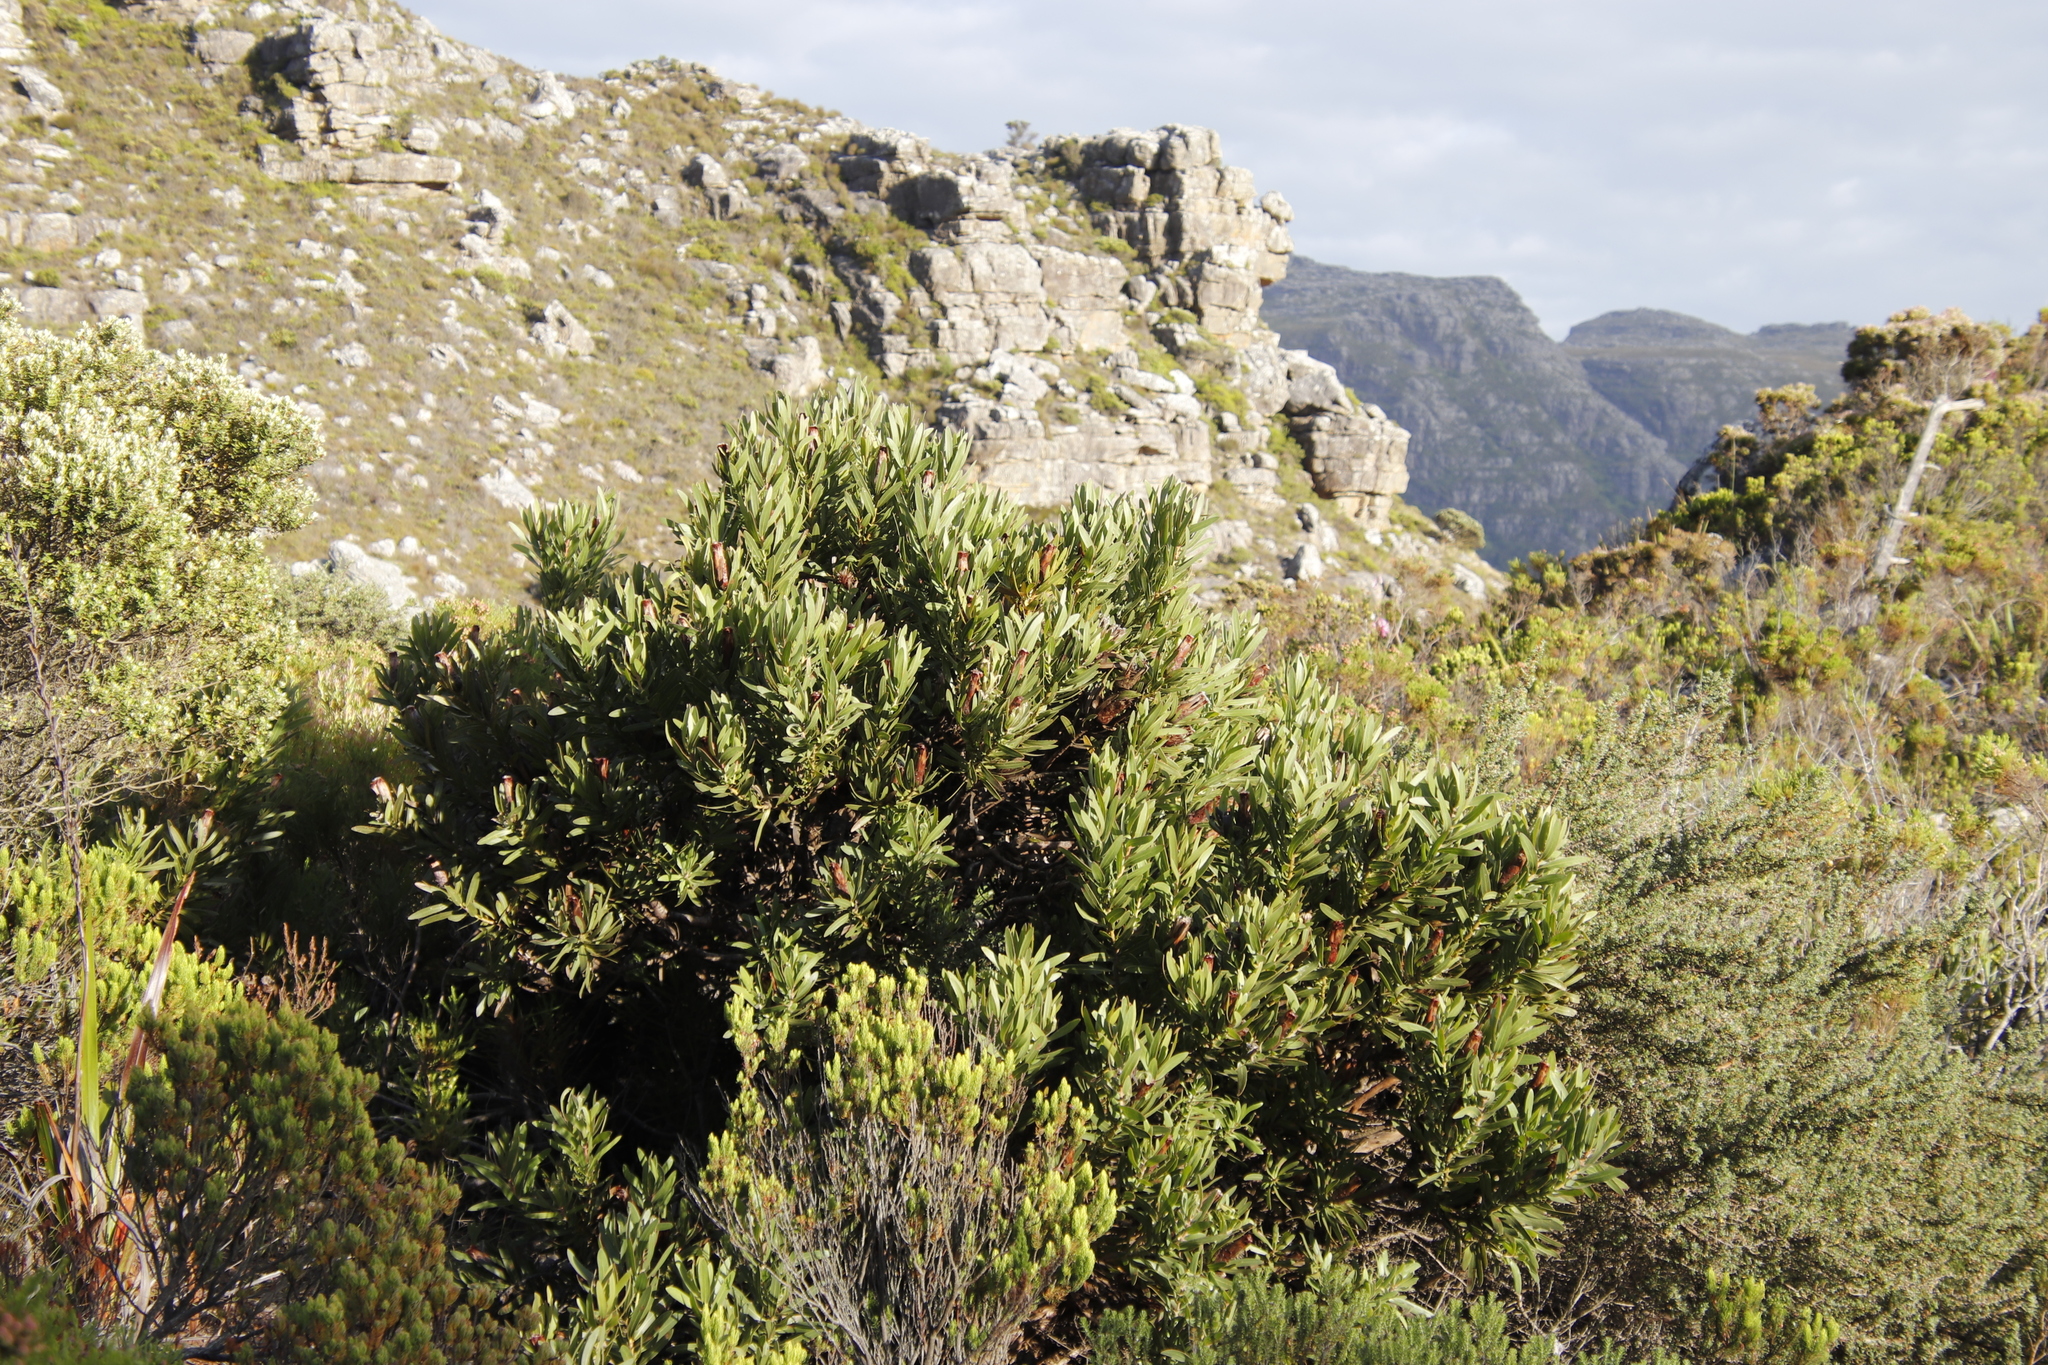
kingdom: Plantae
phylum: Tracheophyta
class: Magnoliopsida
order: Proteales
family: Proteaceae
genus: Protea
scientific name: Protea lepidocarpodendron
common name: Black-bearded protea
